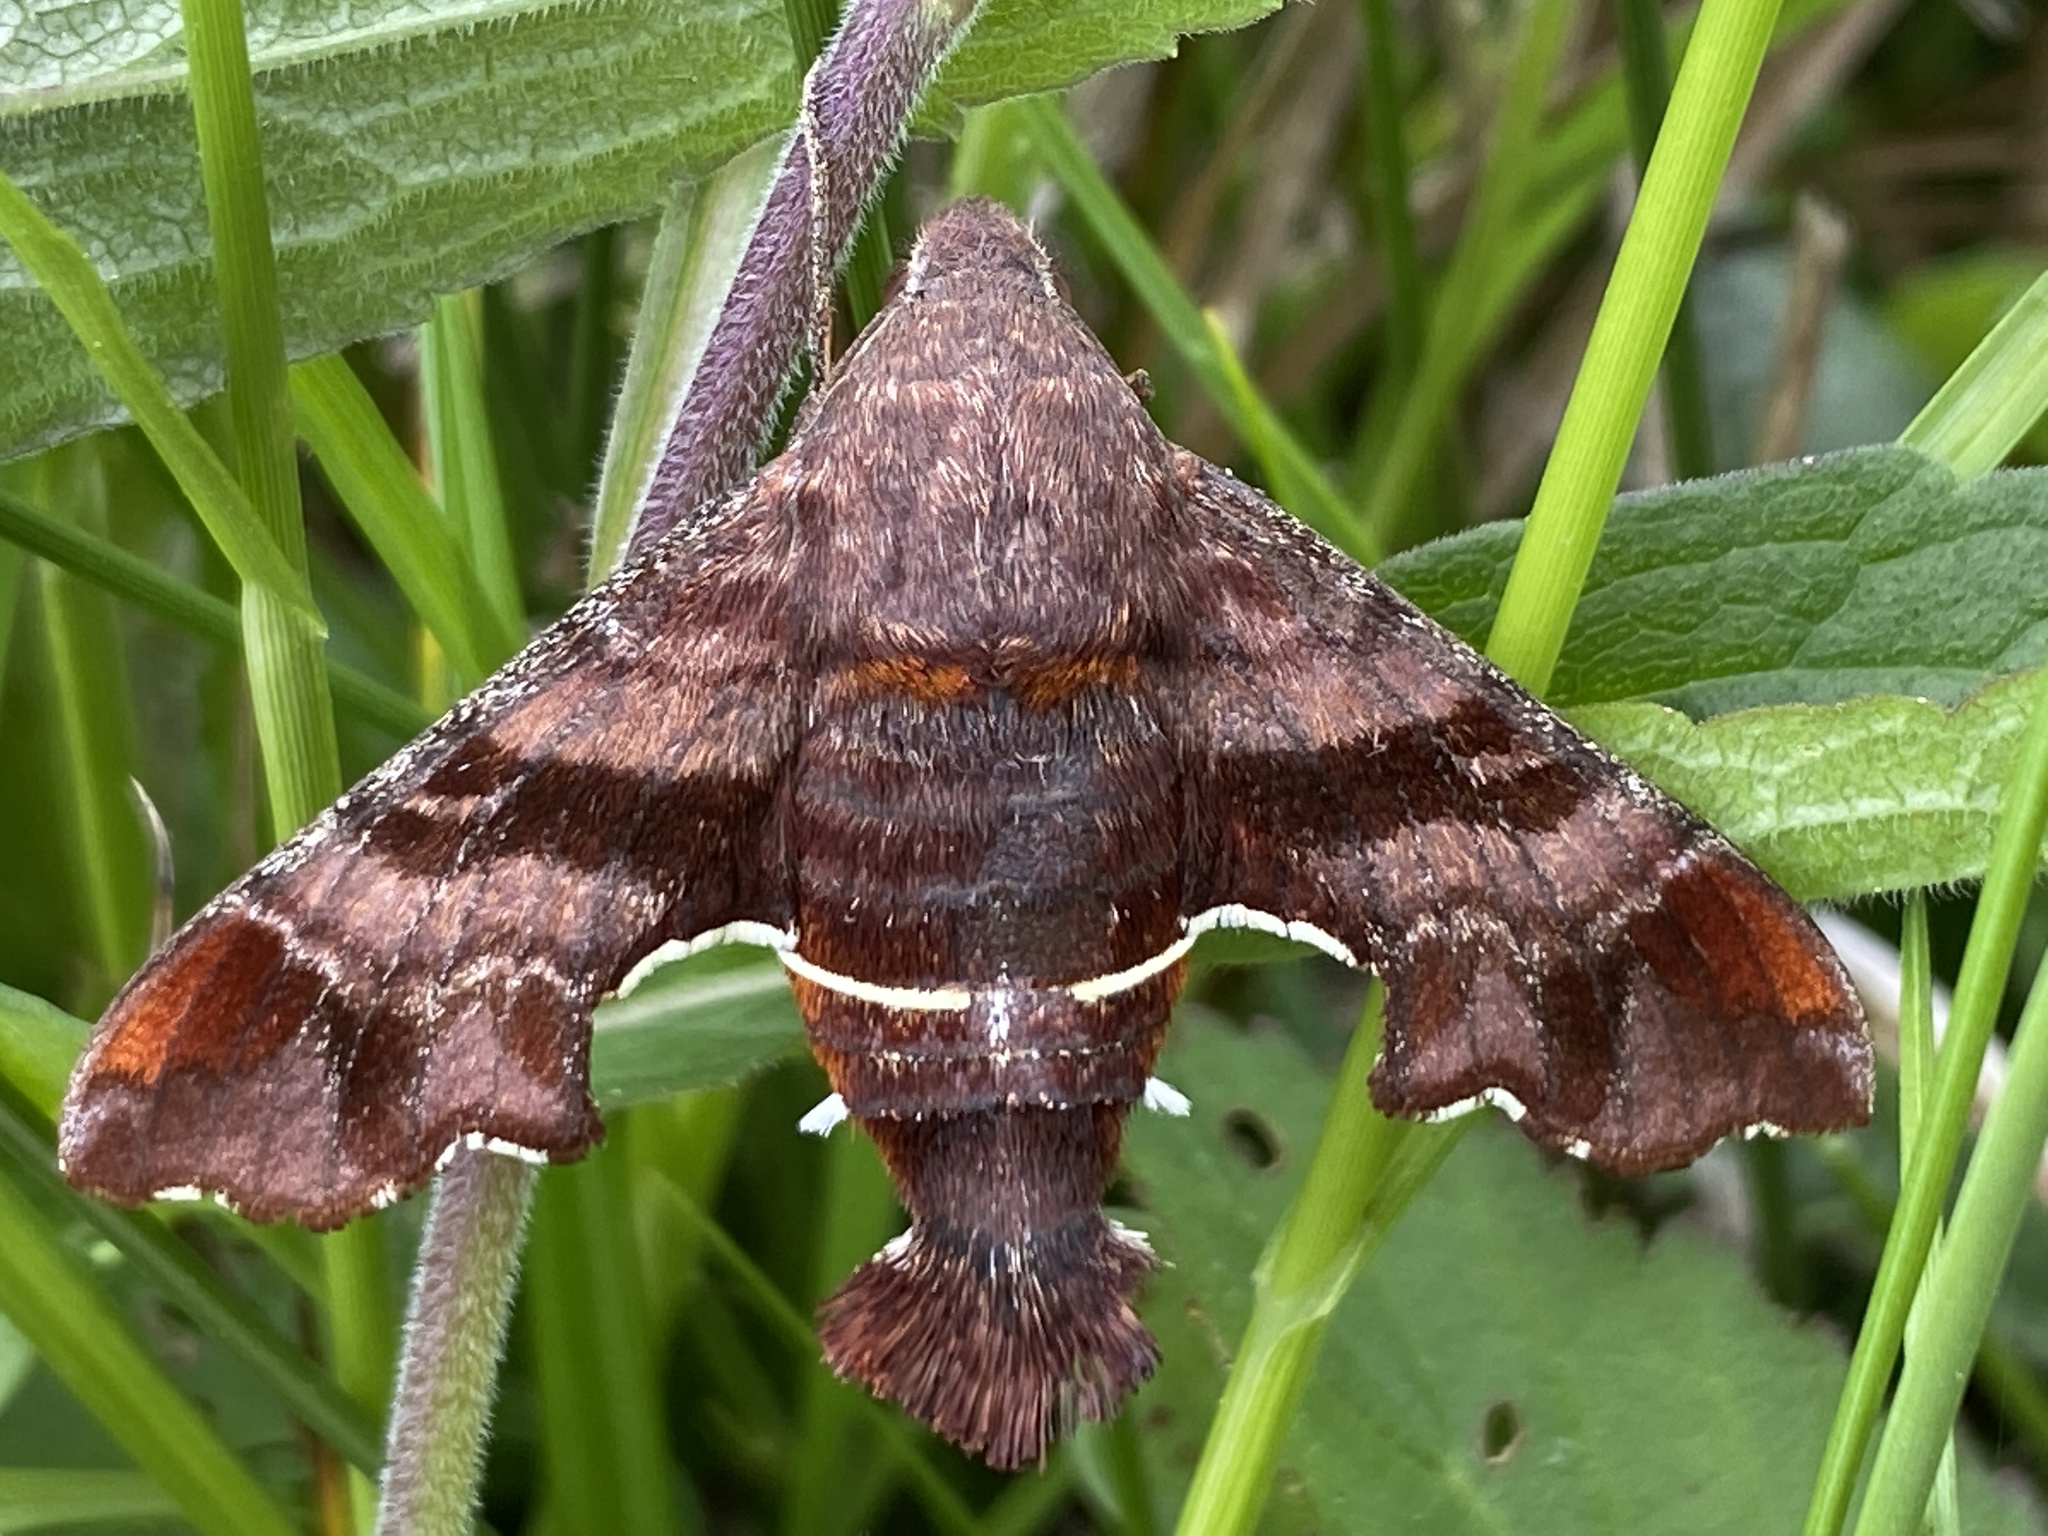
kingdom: Animalia
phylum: Arthropoda
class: Insecta
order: Lepidoptera
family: Sphingidae
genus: Amphion
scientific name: Amphion floridensis
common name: Nessus sphinx
